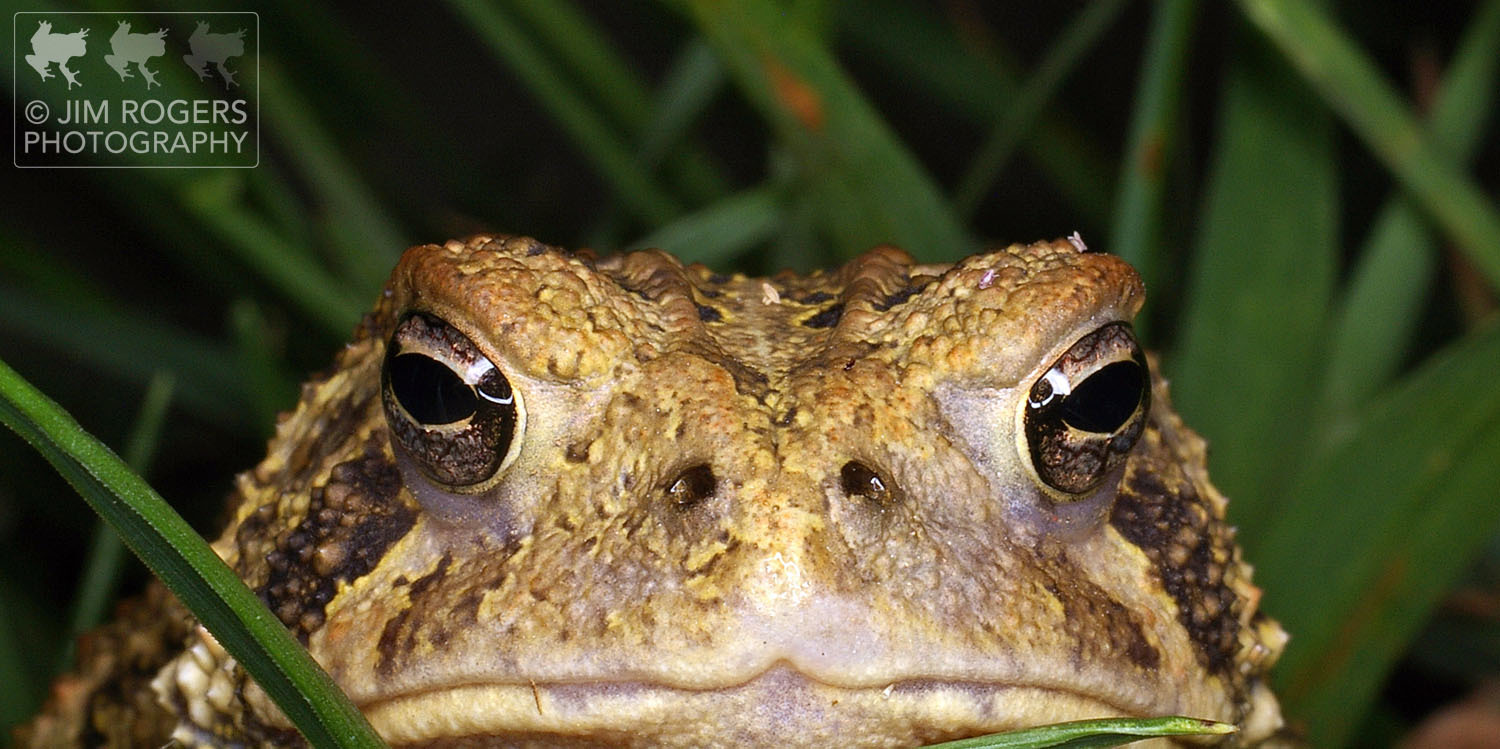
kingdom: Animalia
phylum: Chordata
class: Amphibia
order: Anura
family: Bufonidae
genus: Anaxyrus
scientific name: Anaxyrus americanus
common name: American toad
